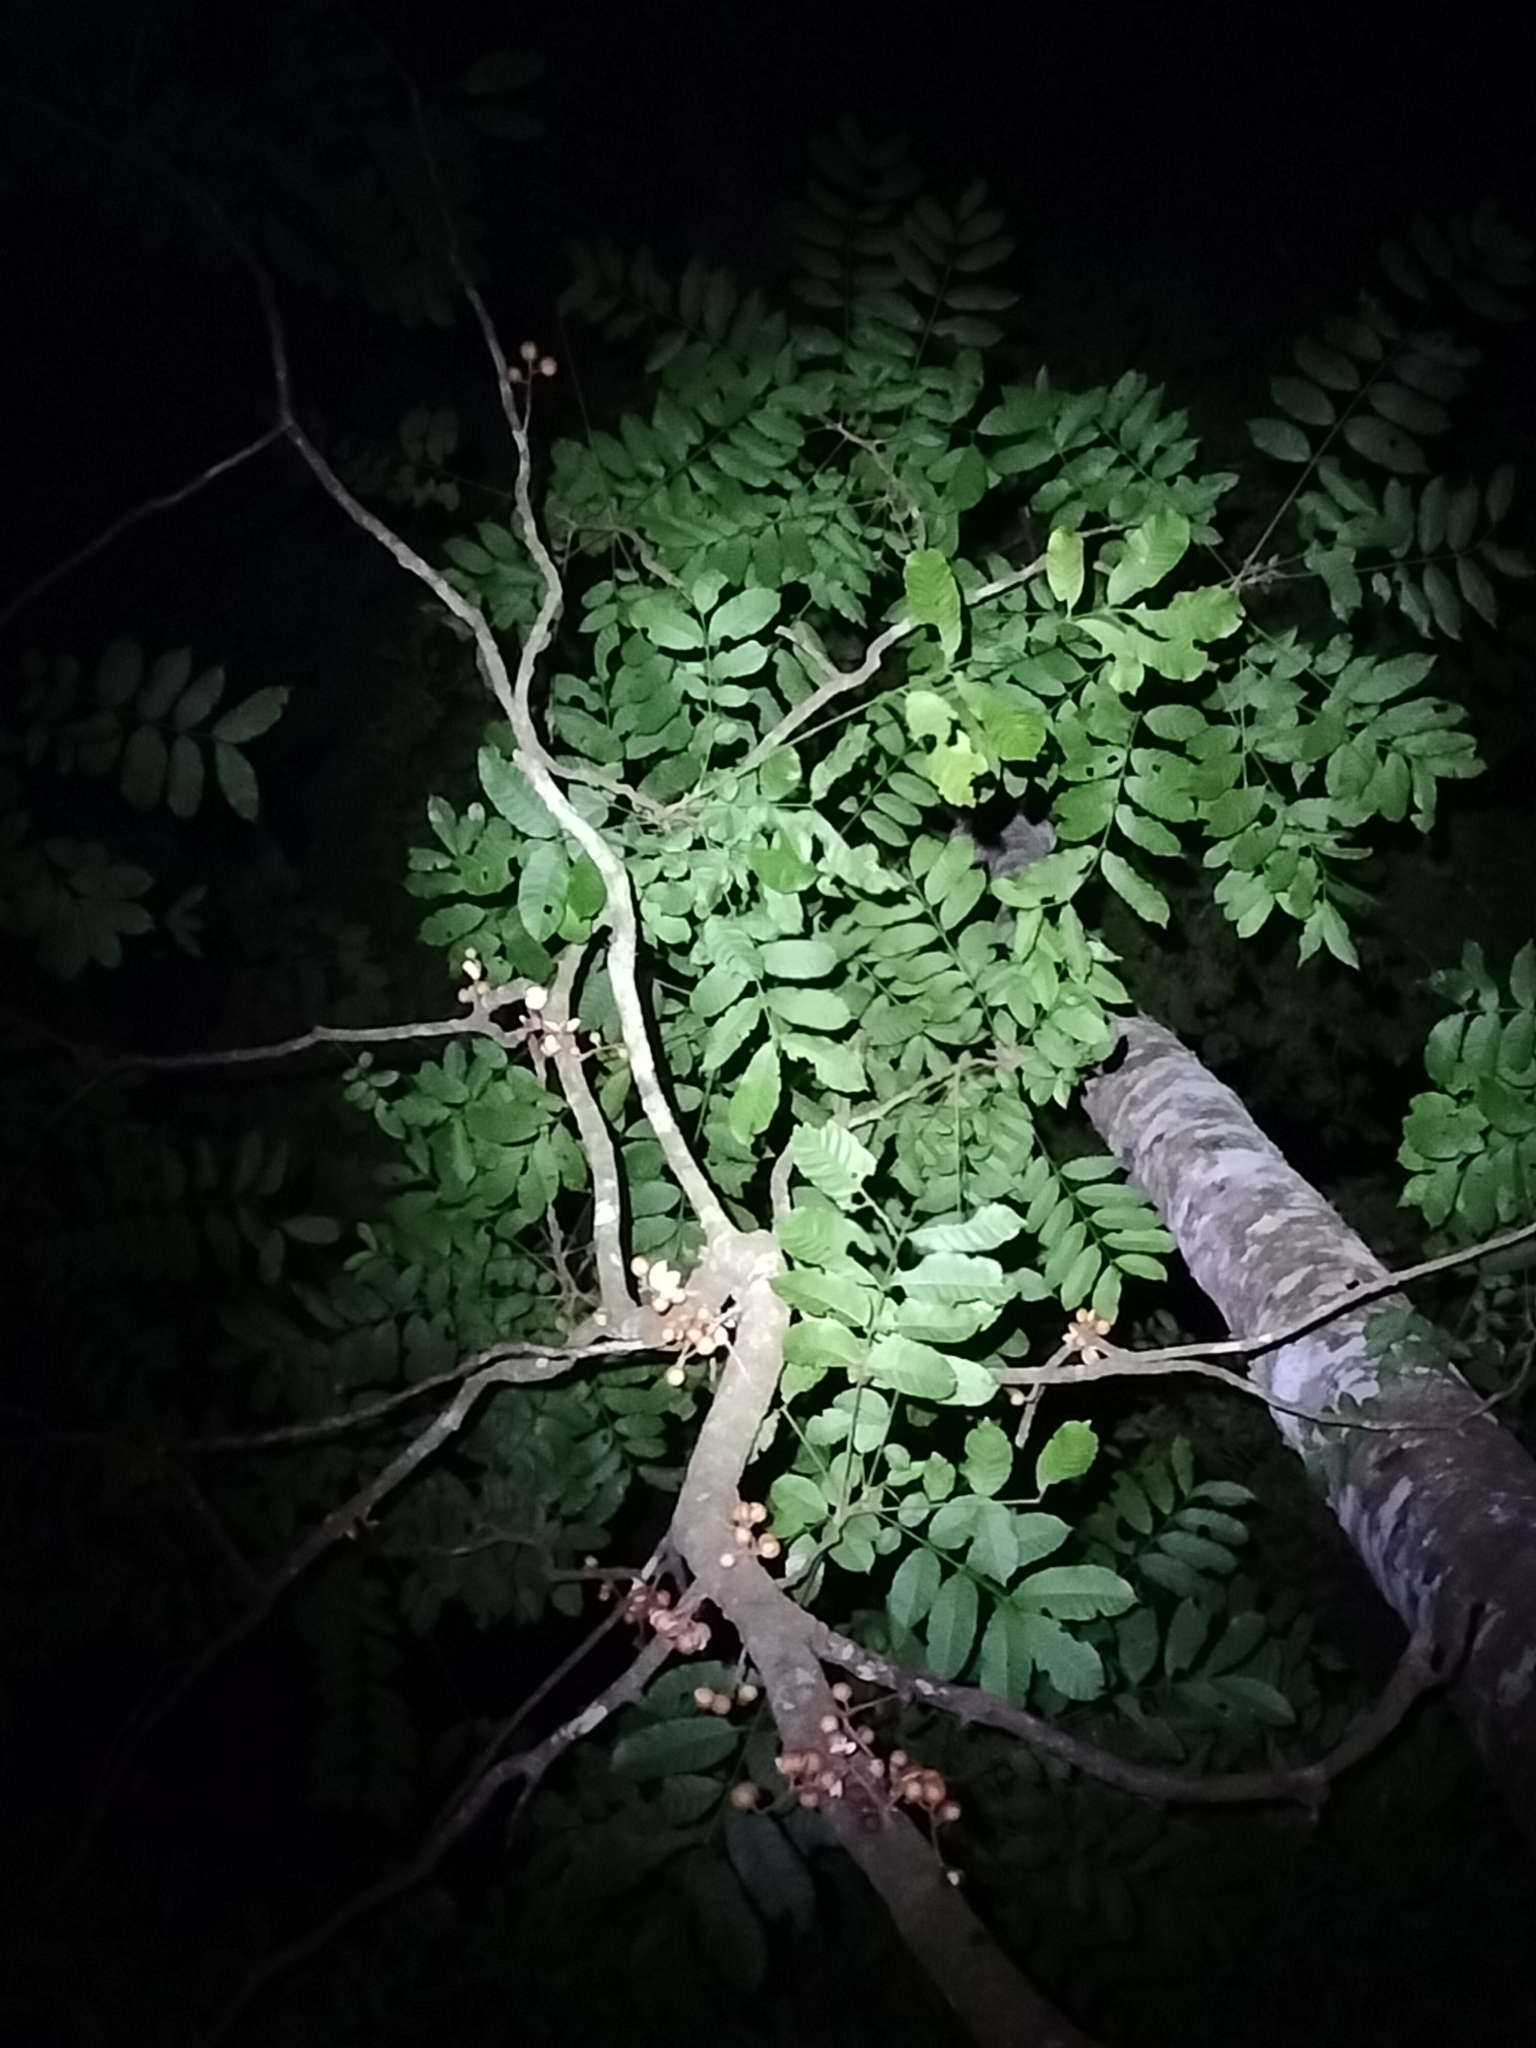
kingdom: Plantae
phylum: Tracheophyta
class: Magnoliopsida
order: Sapindales
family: Meliaceae
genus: Epicharis
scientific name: Epicharis parasitica
